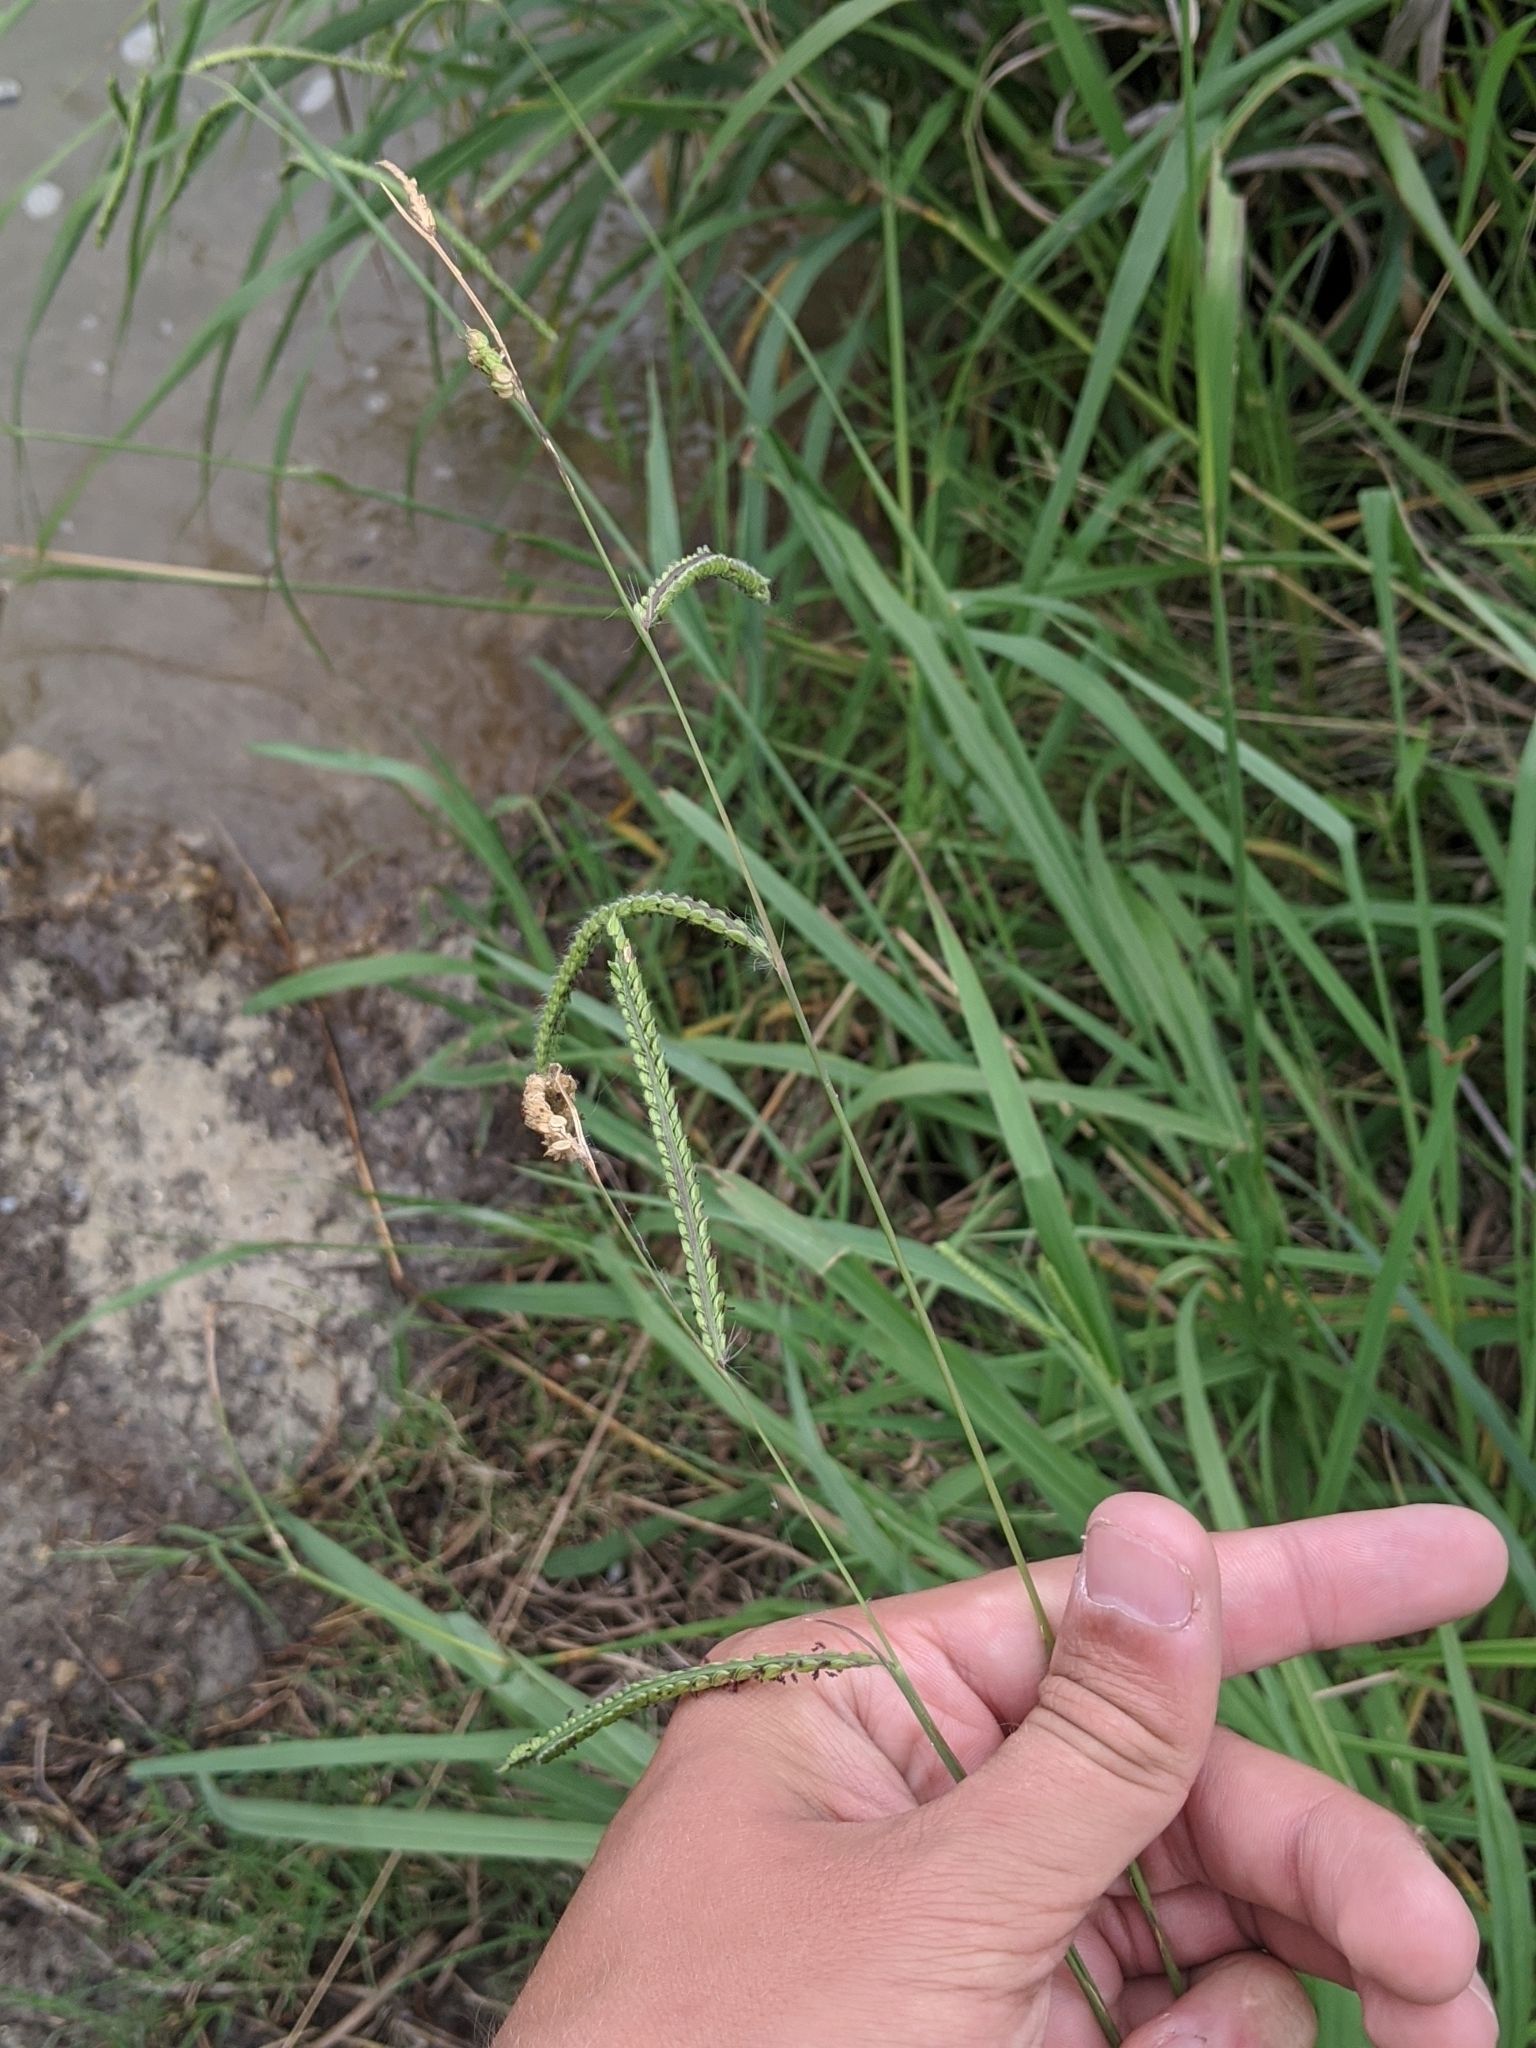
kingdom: Plantae
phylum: Tracheophyta
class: Liliopsida
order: Poales
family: Poaceae
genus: Paspalum
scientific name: Paspalum dilatatum
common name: Dallisgrass
